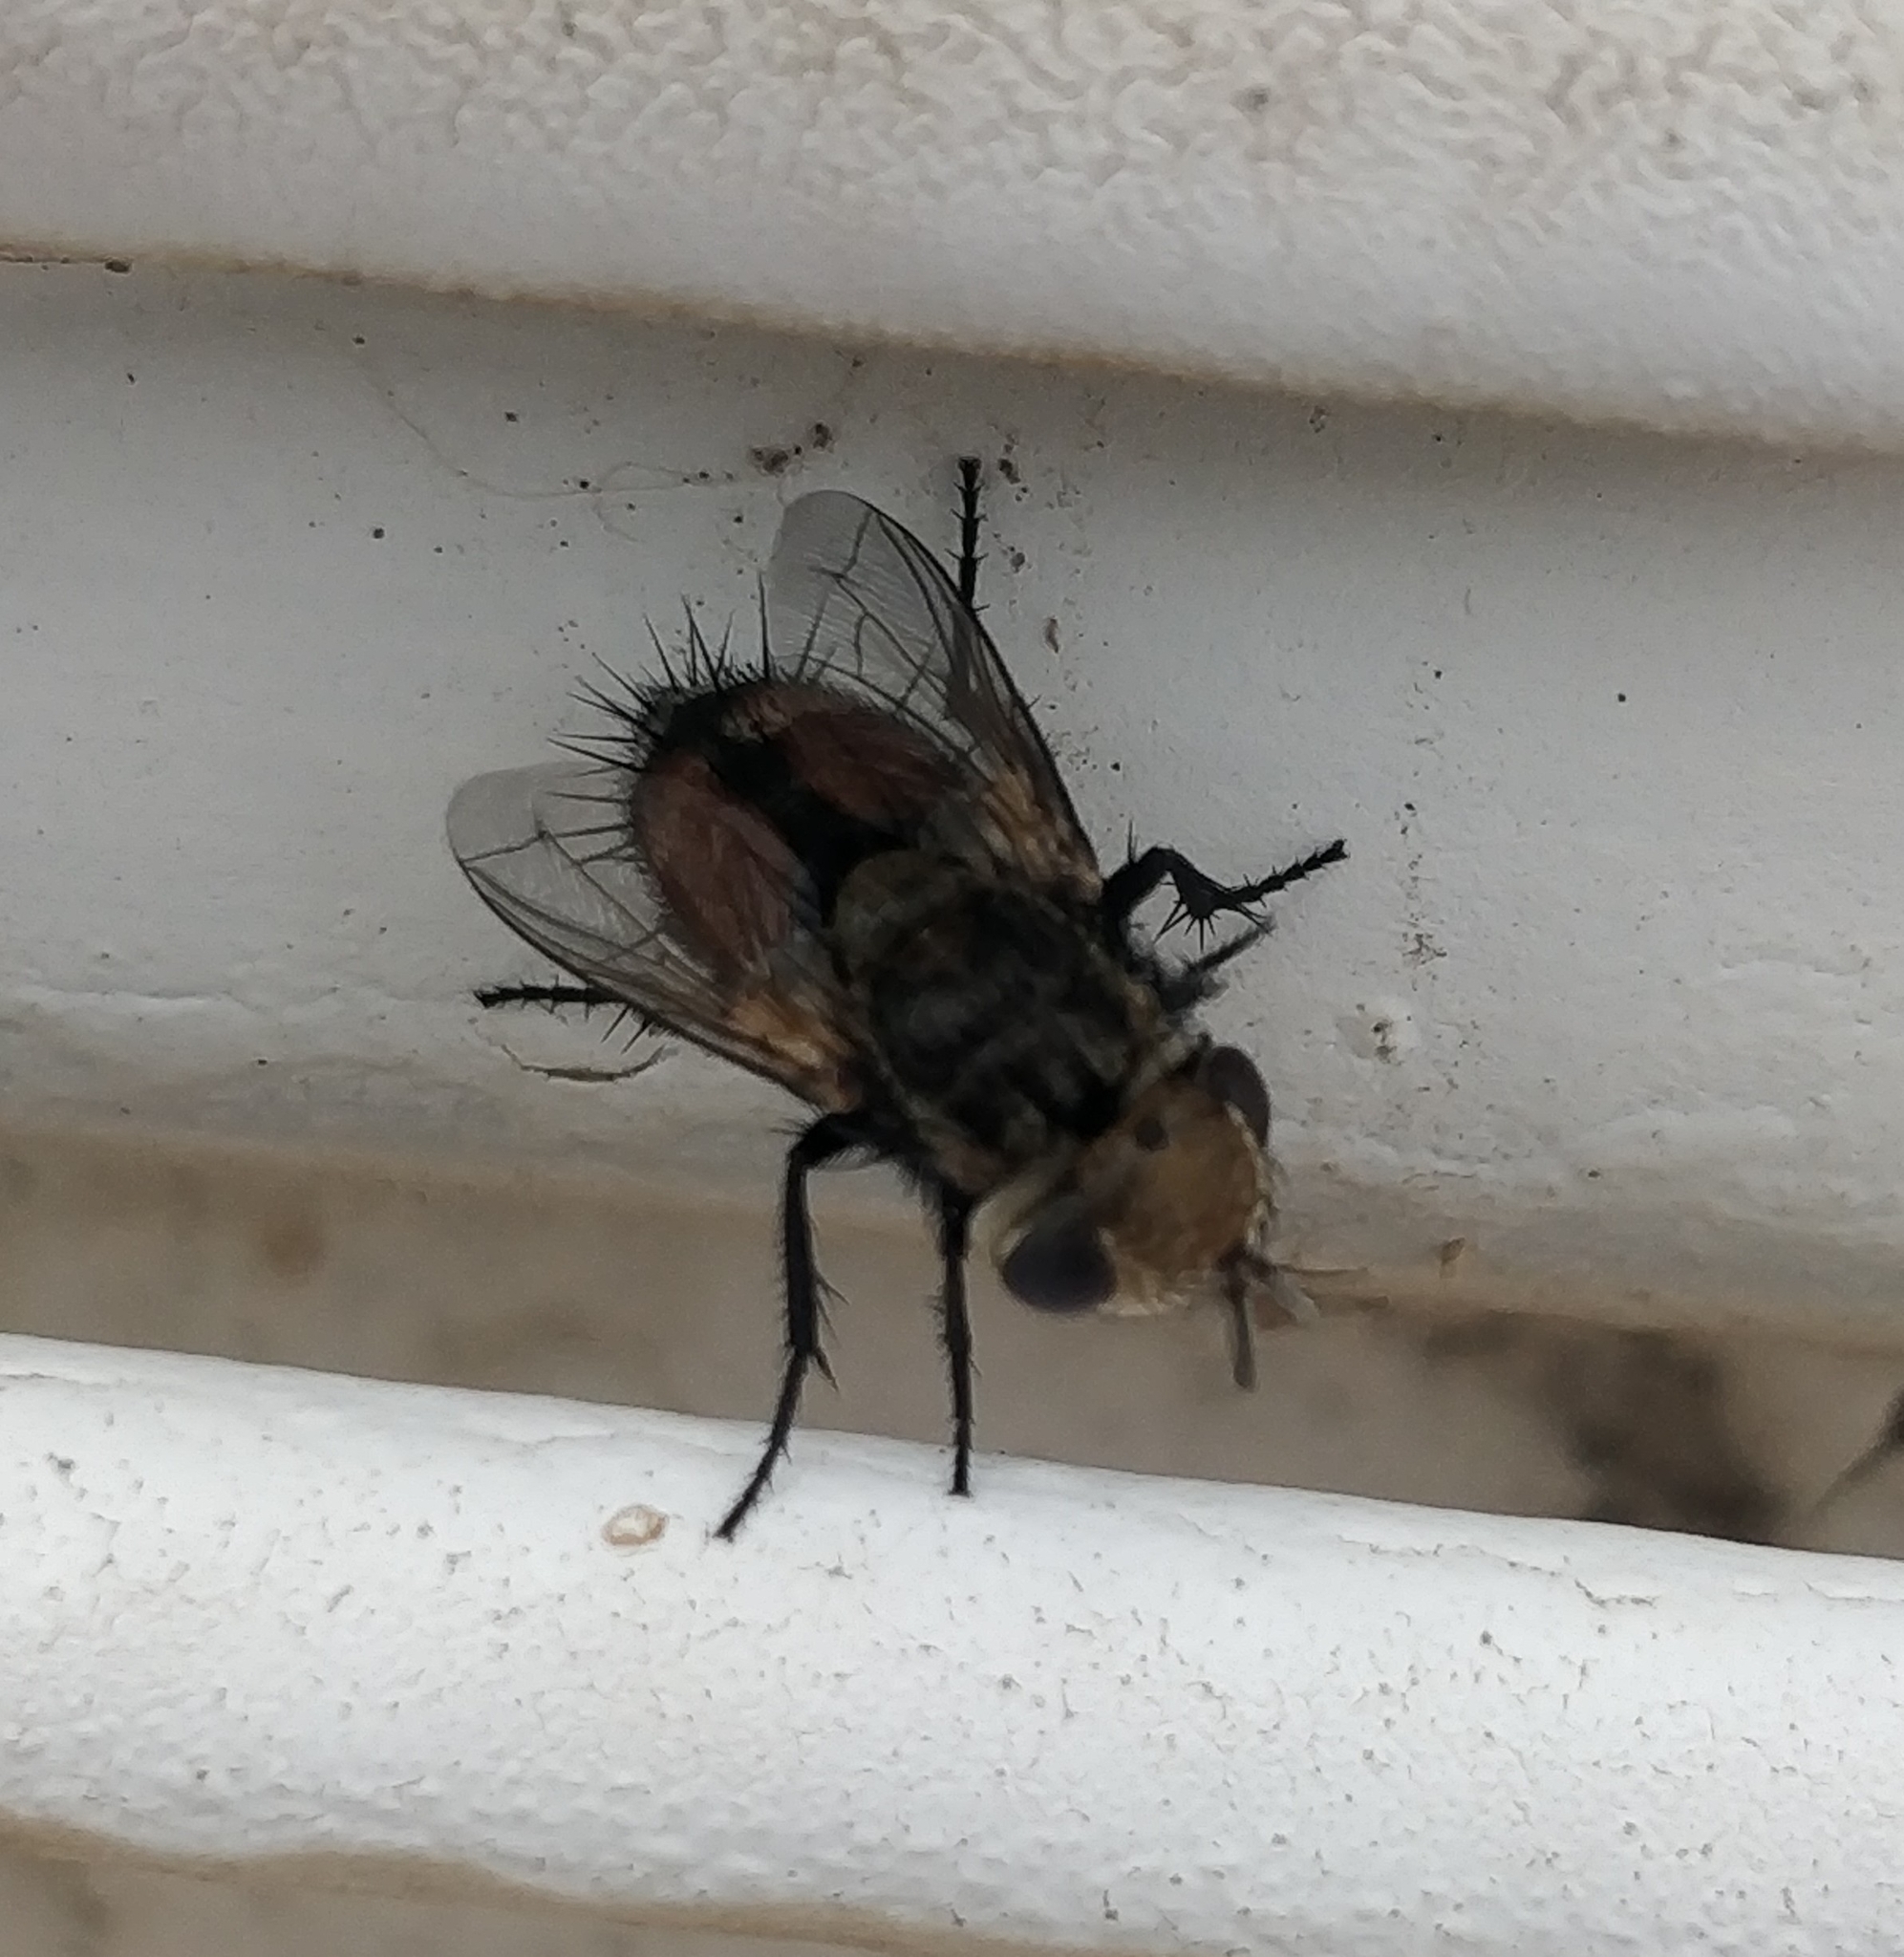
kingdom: Animalia
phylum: Arthropoda
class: Insecta
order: Diptera
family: Tachinidae
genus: Gonia
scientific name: Gonia bimaculata
